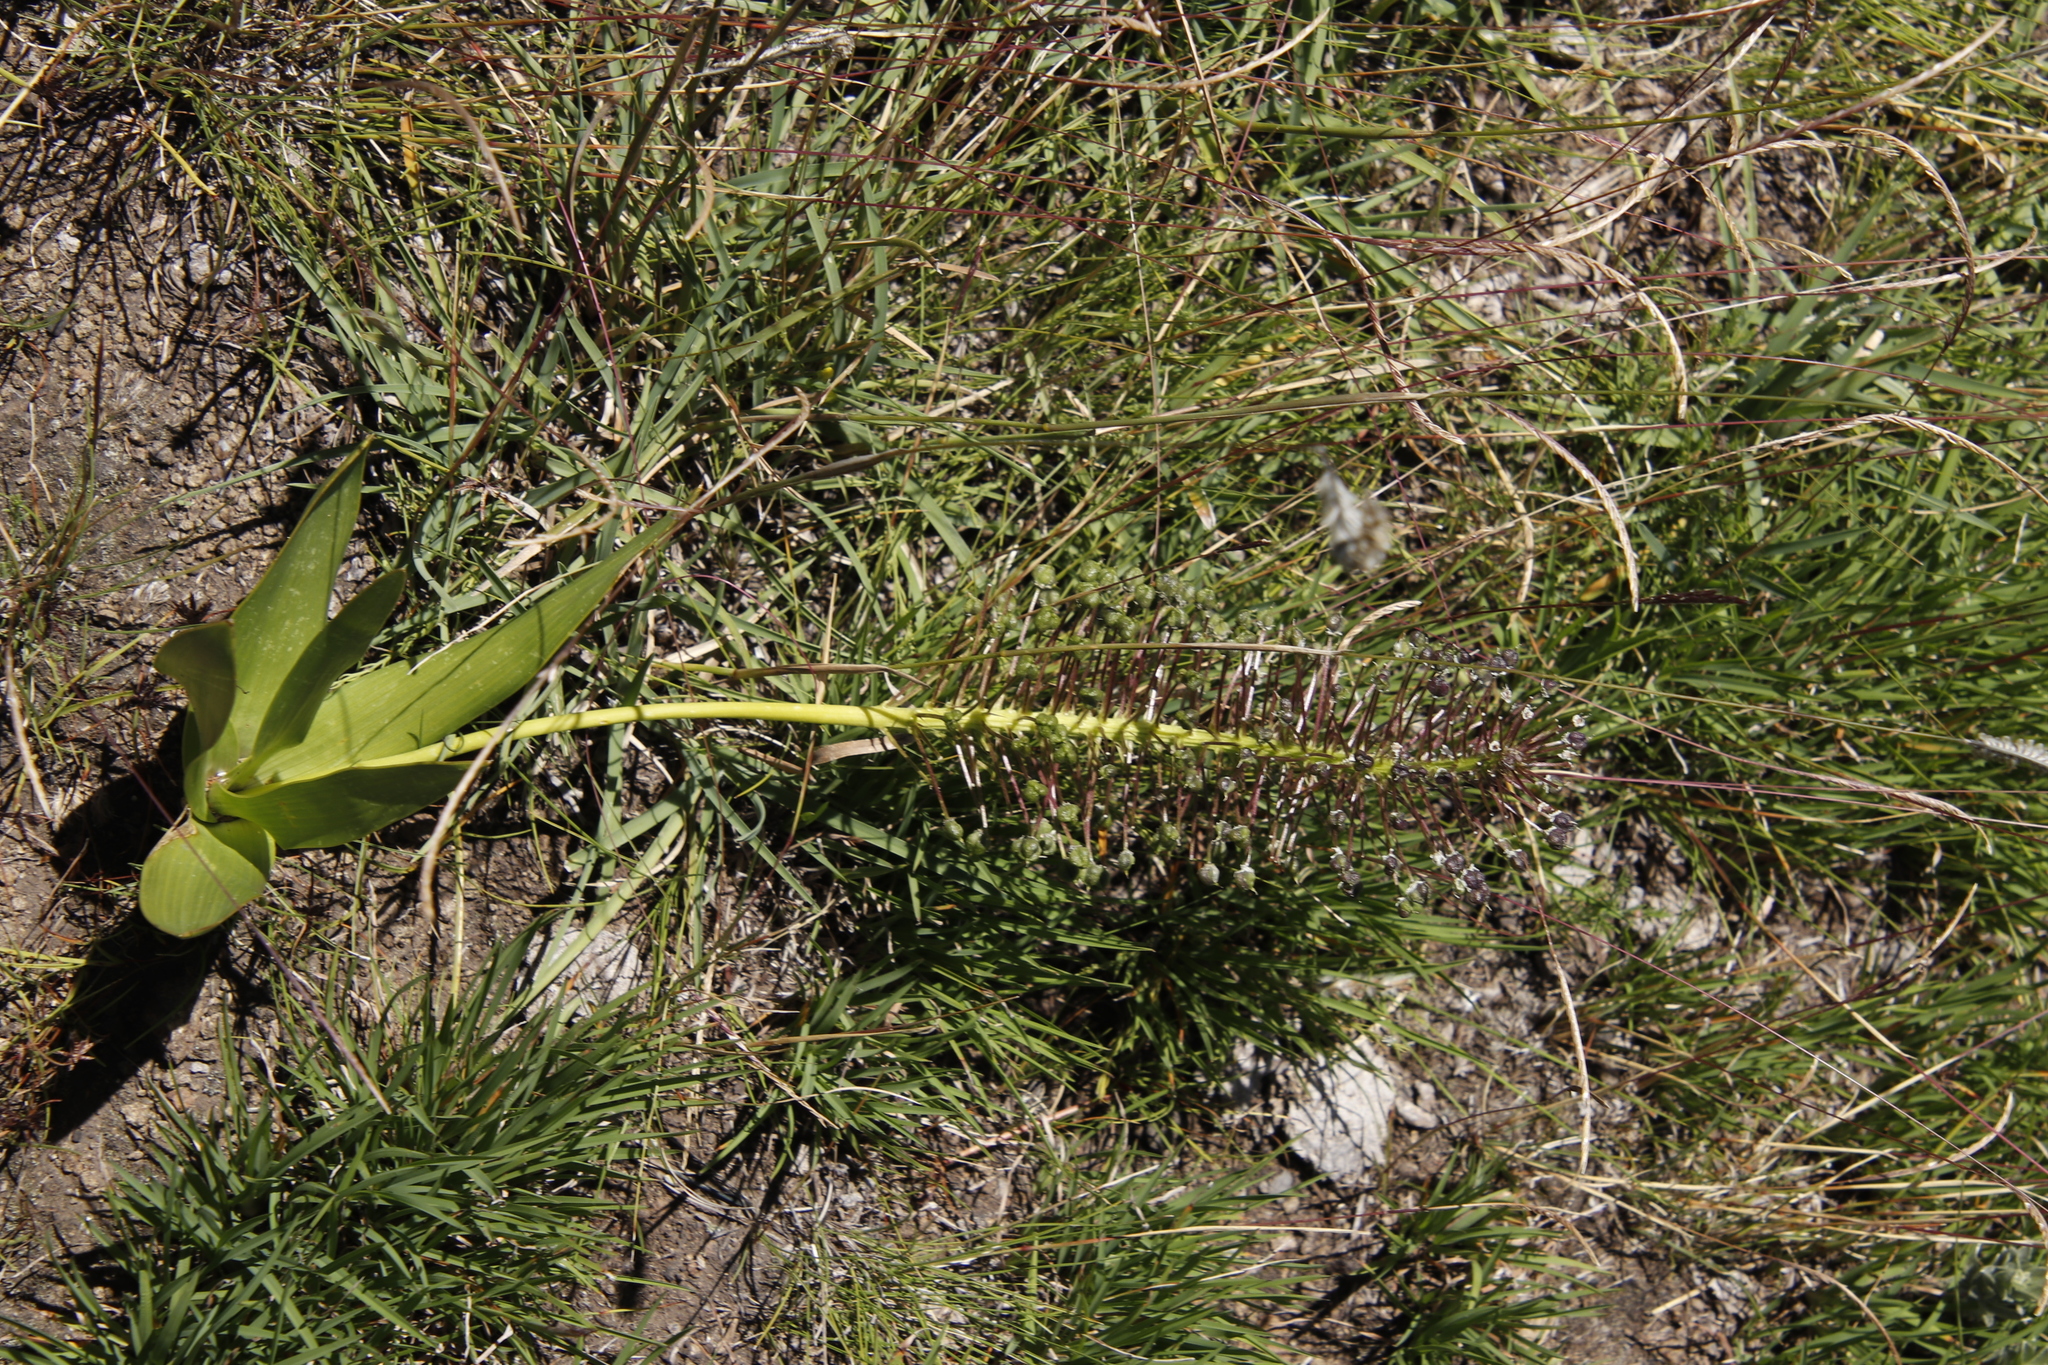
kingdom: Plantae
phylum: Tracheophyta
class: Liliopsida
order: Asparagales
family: Asparagaceae
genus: Schizocarphus
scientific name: Schizocarphus nervosus
